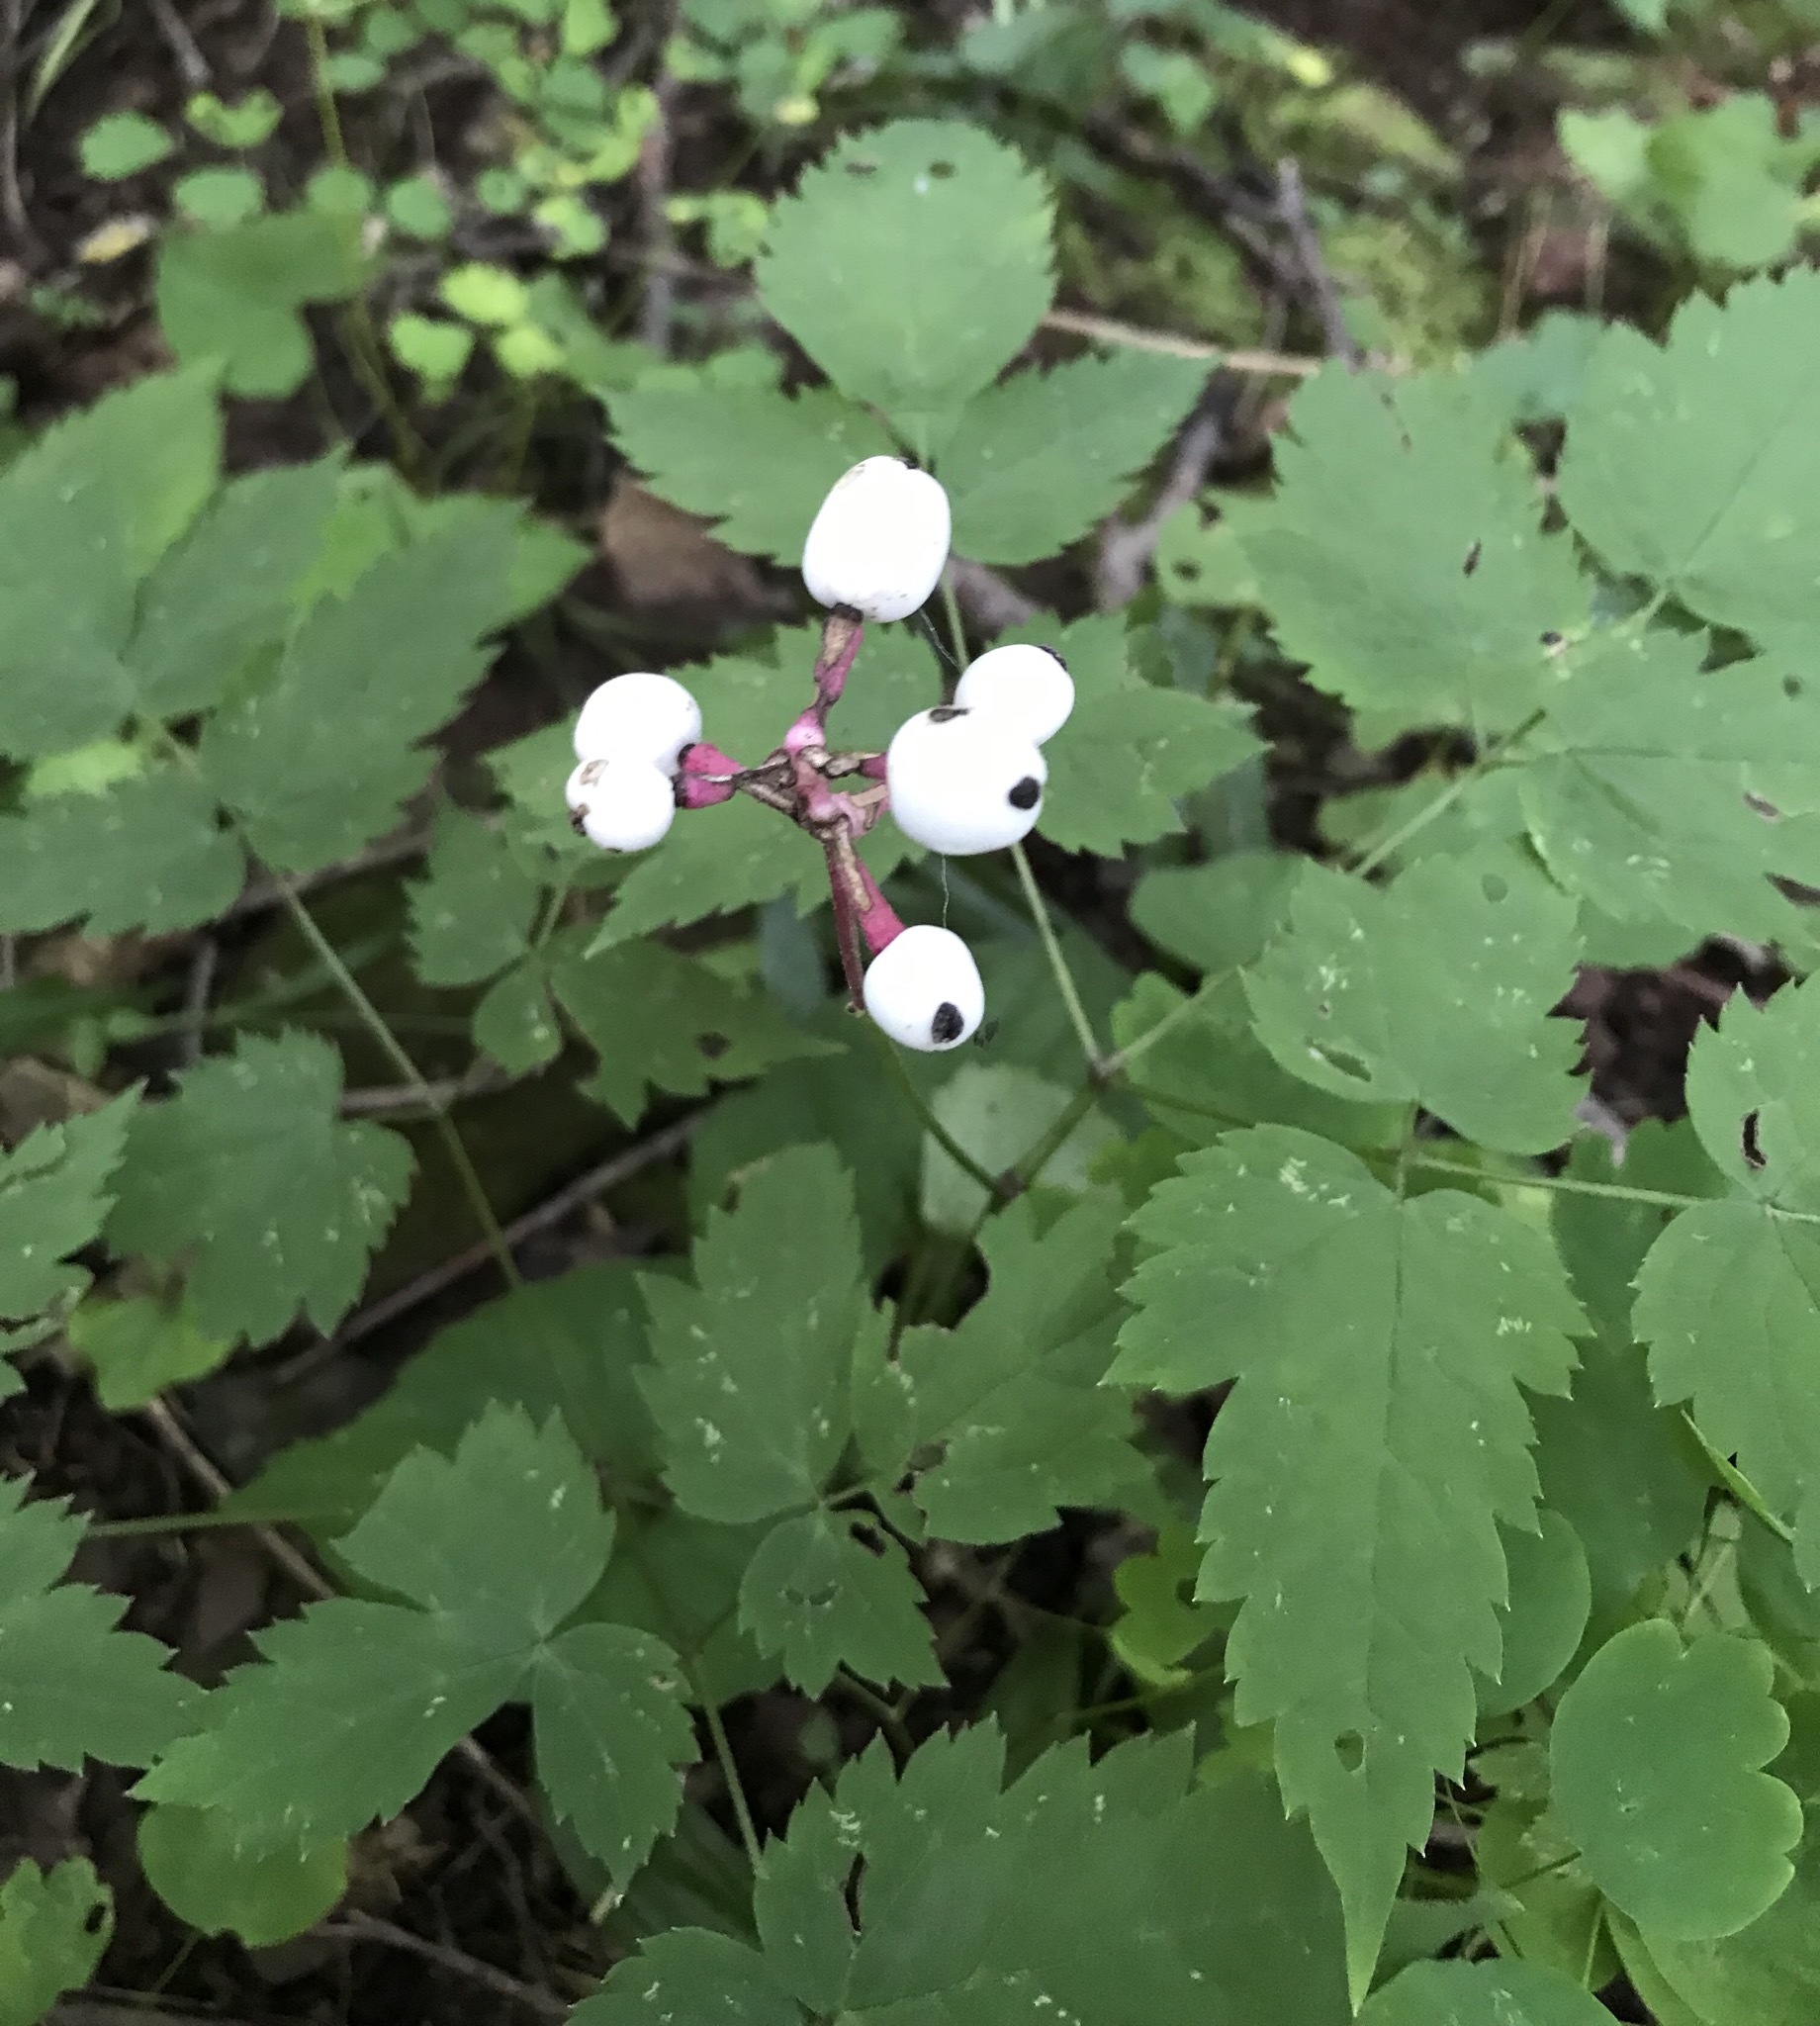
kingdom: Plantae
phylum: Tracheophyta
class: Magnoliopsida
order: Ranunculales
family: Ranunculaceae
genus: Actaea
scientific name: Actaea pachypoda
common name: Doll's-eyes
